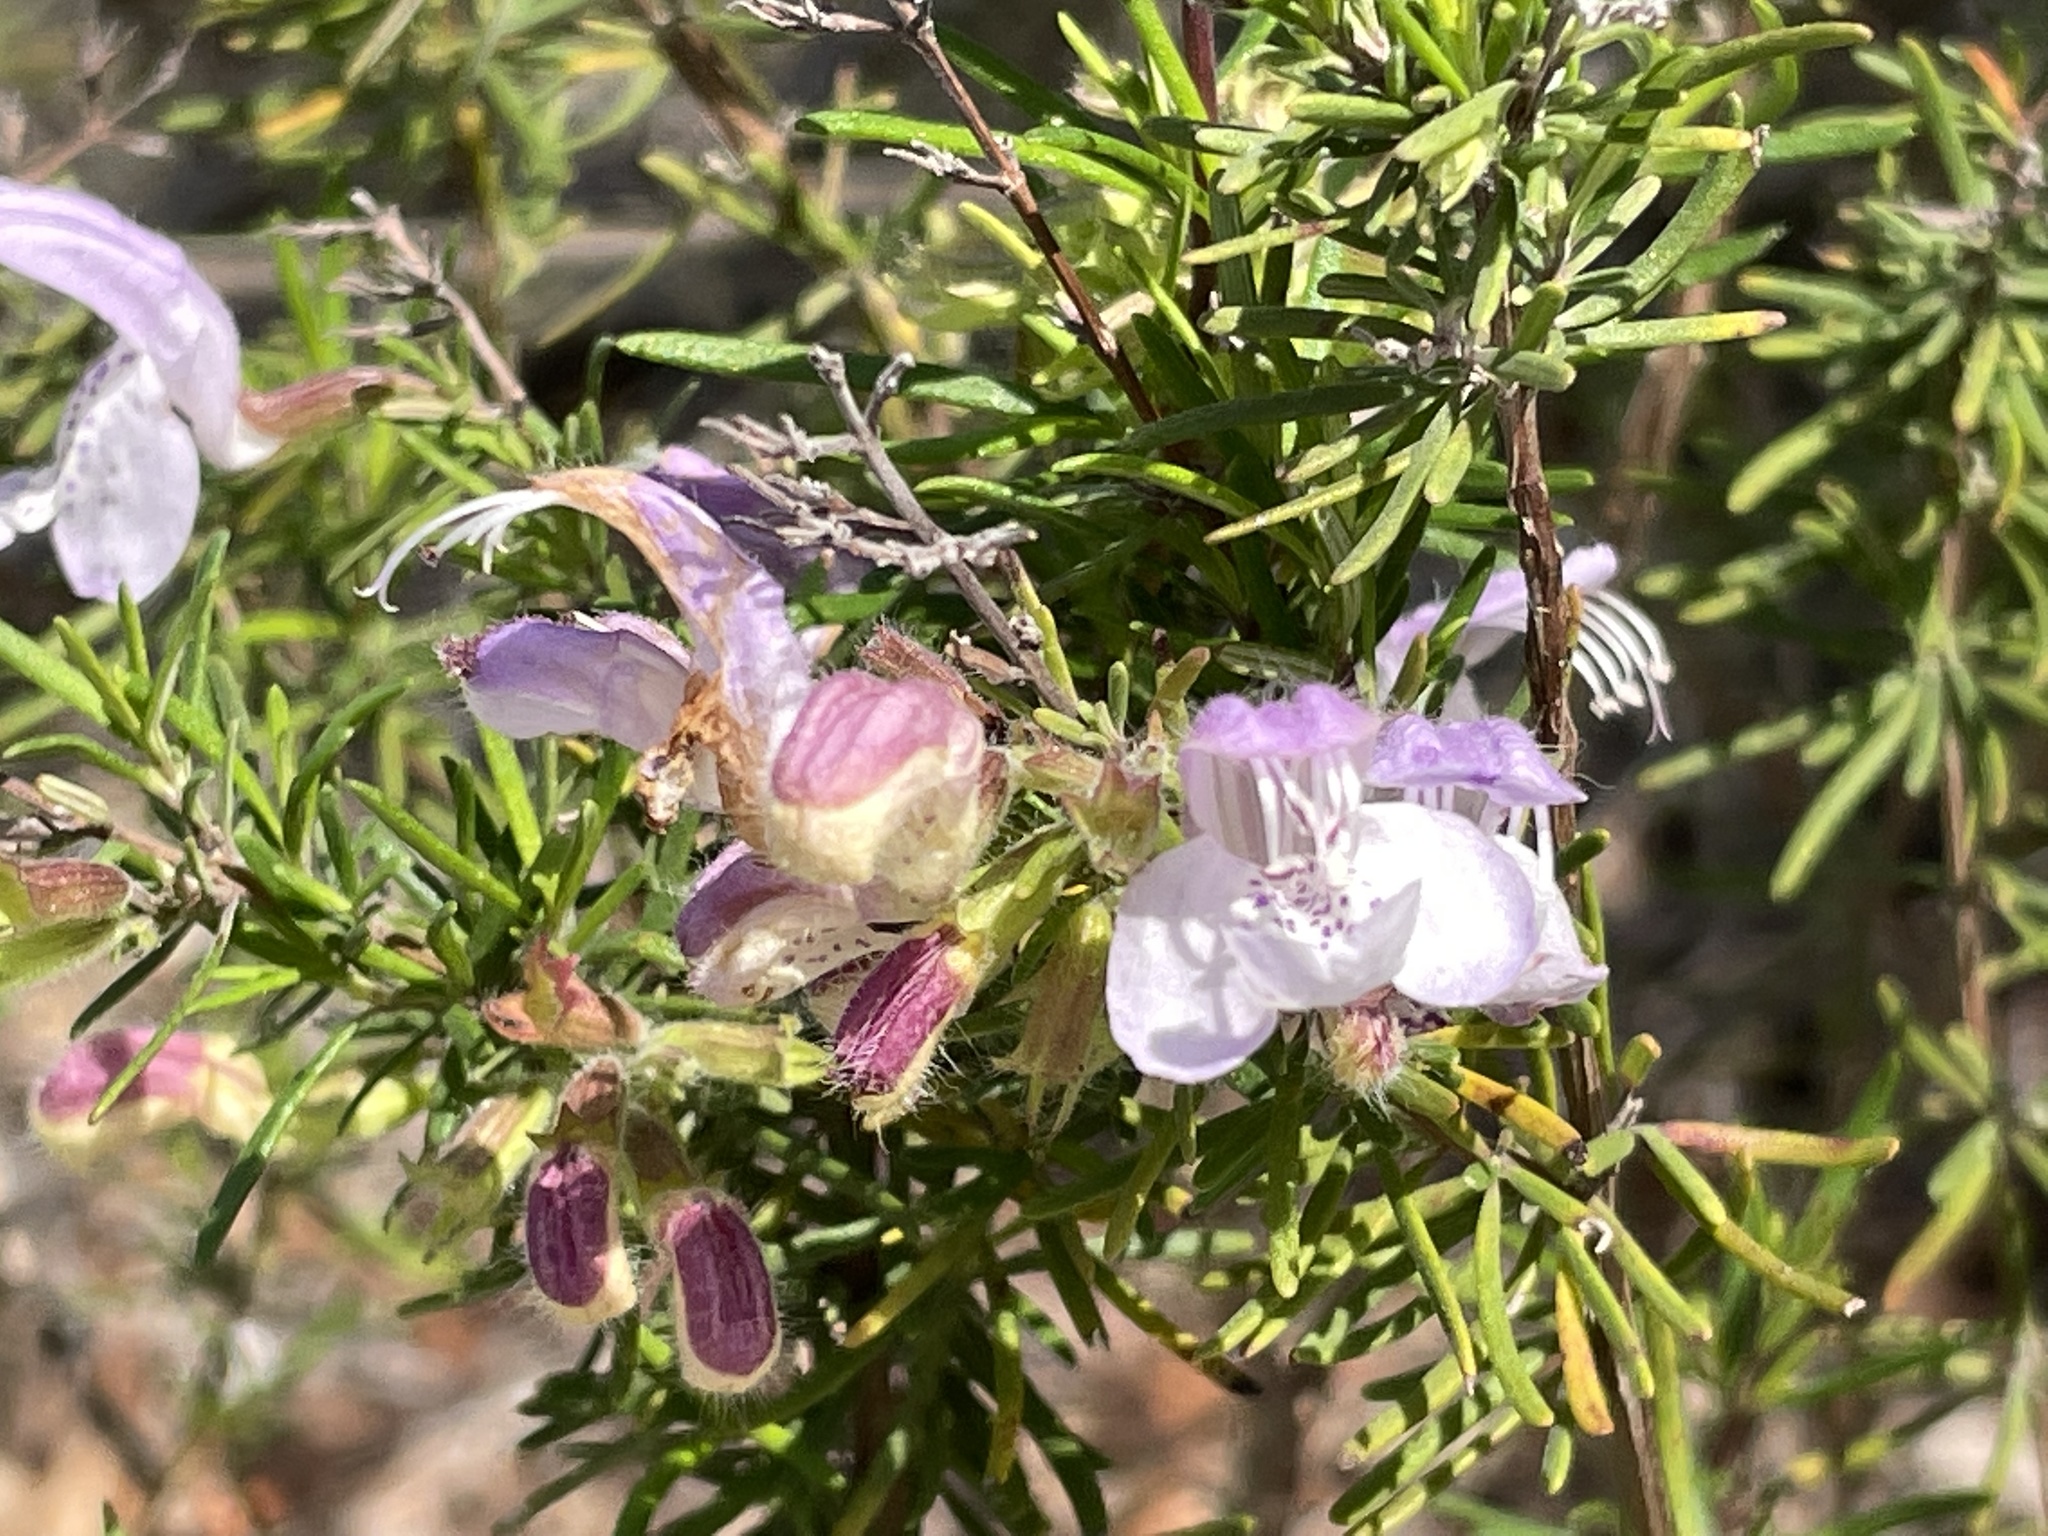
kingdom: Plantae
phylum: Tracheophyta
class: Magnoliopsida
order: Lamiales
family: Lamiaceae
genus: Conradina
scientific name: Conradina grandiflora
